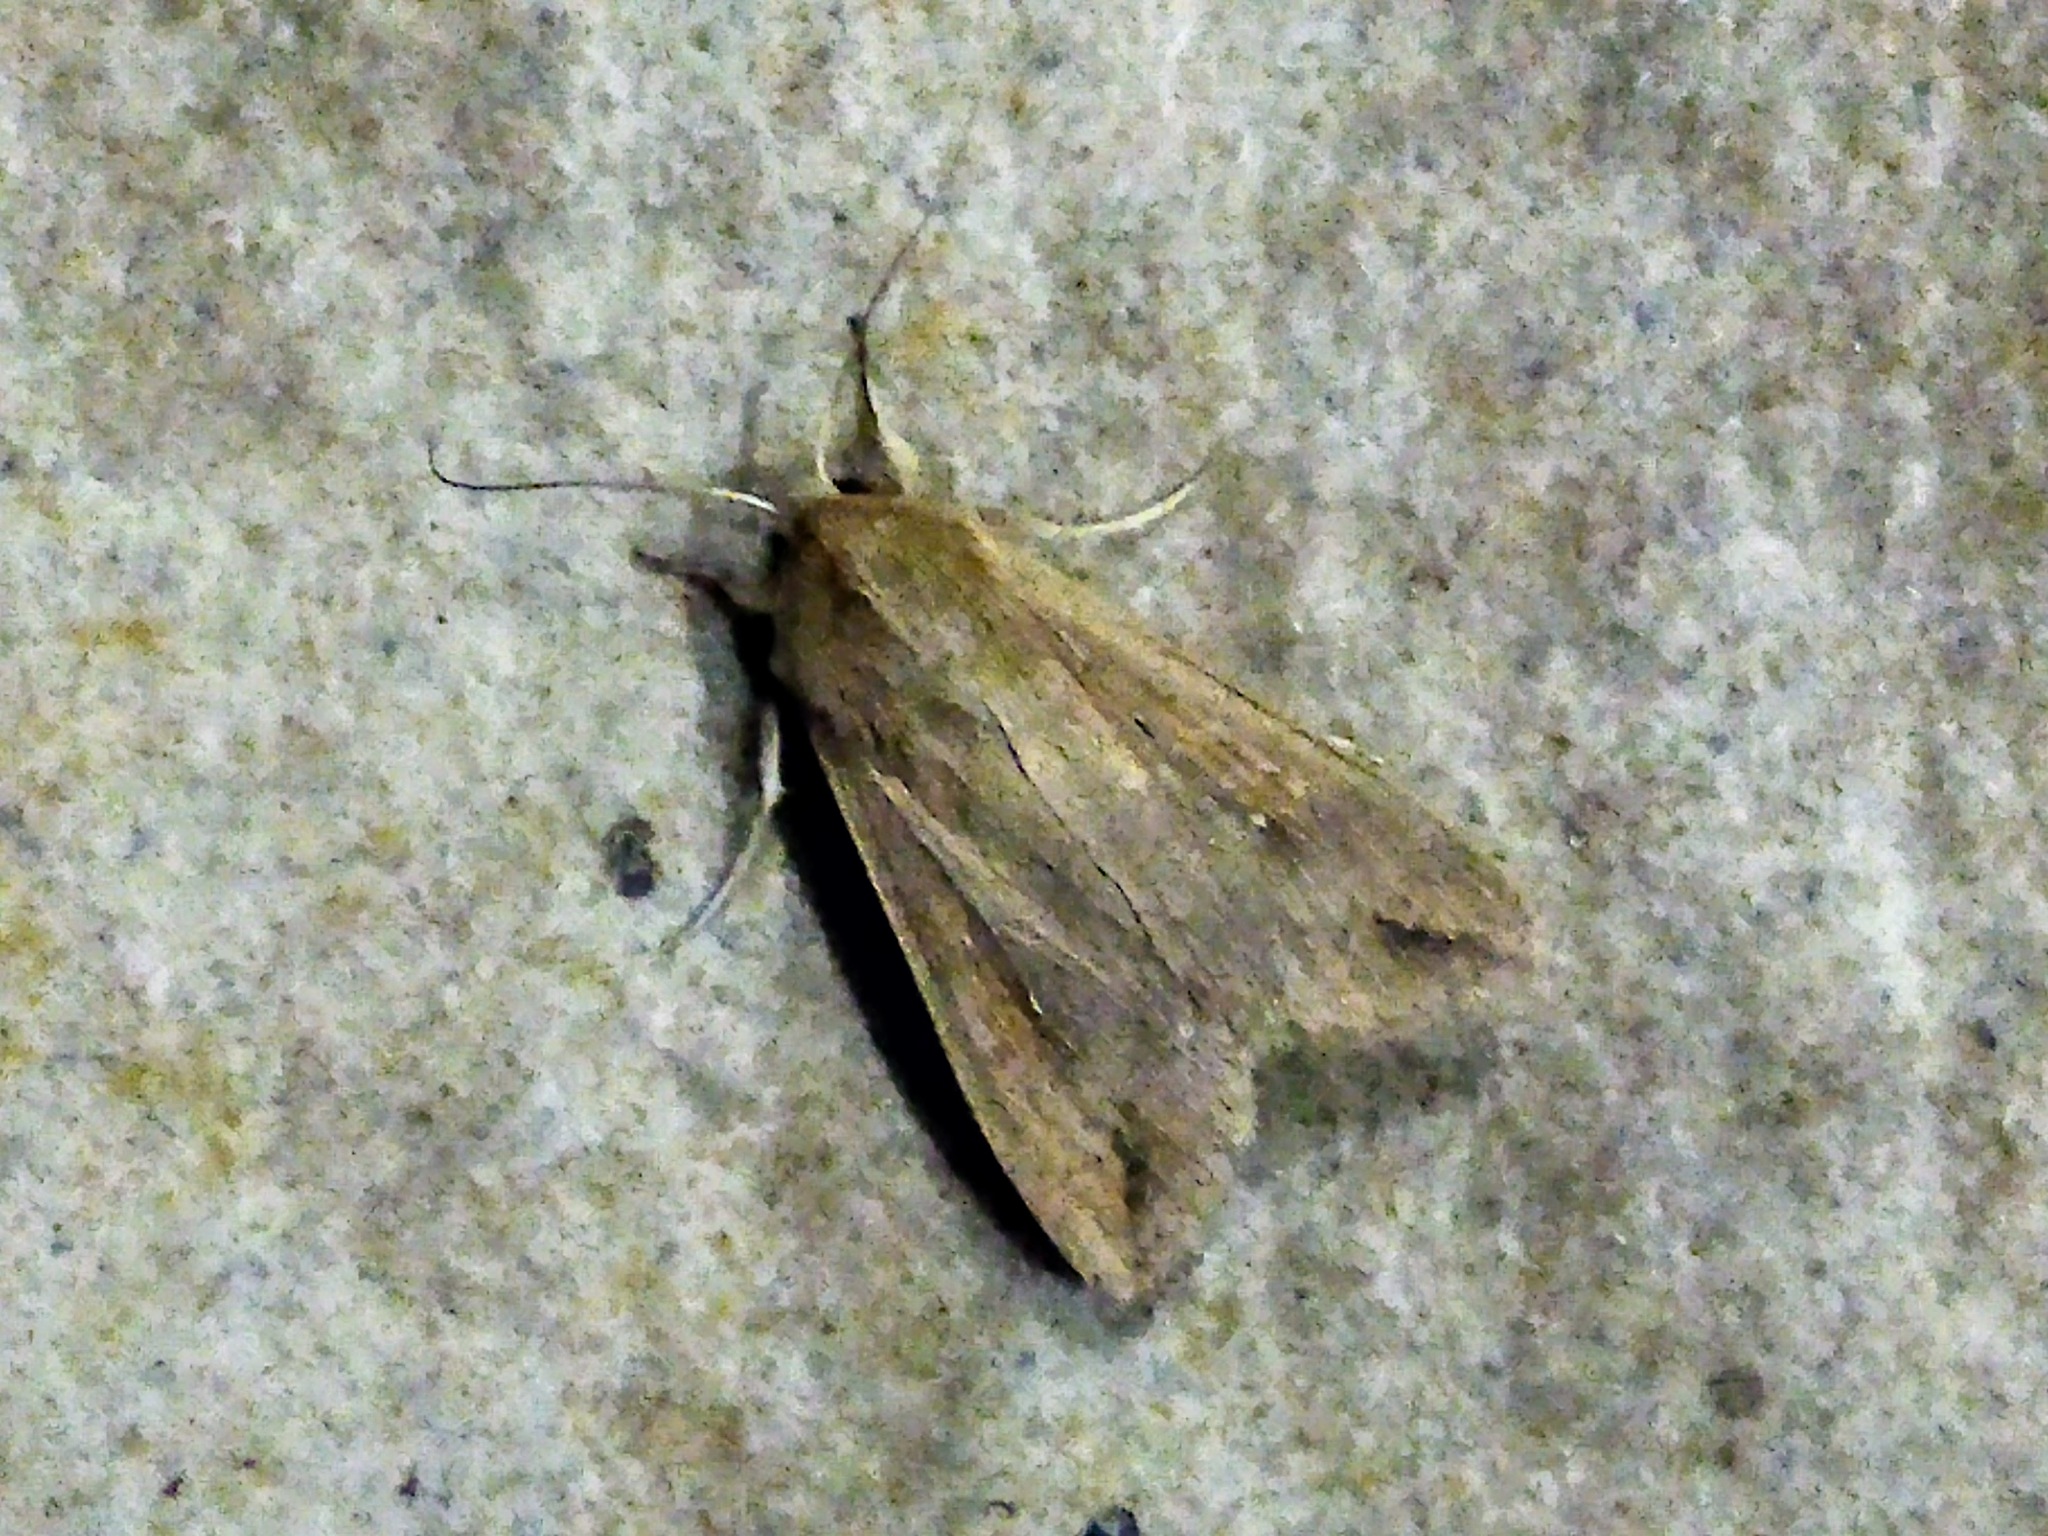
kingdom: Animalia
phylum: Arthropoda
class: Insecta
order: Lepidoptera
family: Noctuidae
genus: Mythimna
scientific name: Mythimna unipuncta
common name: White-speck
